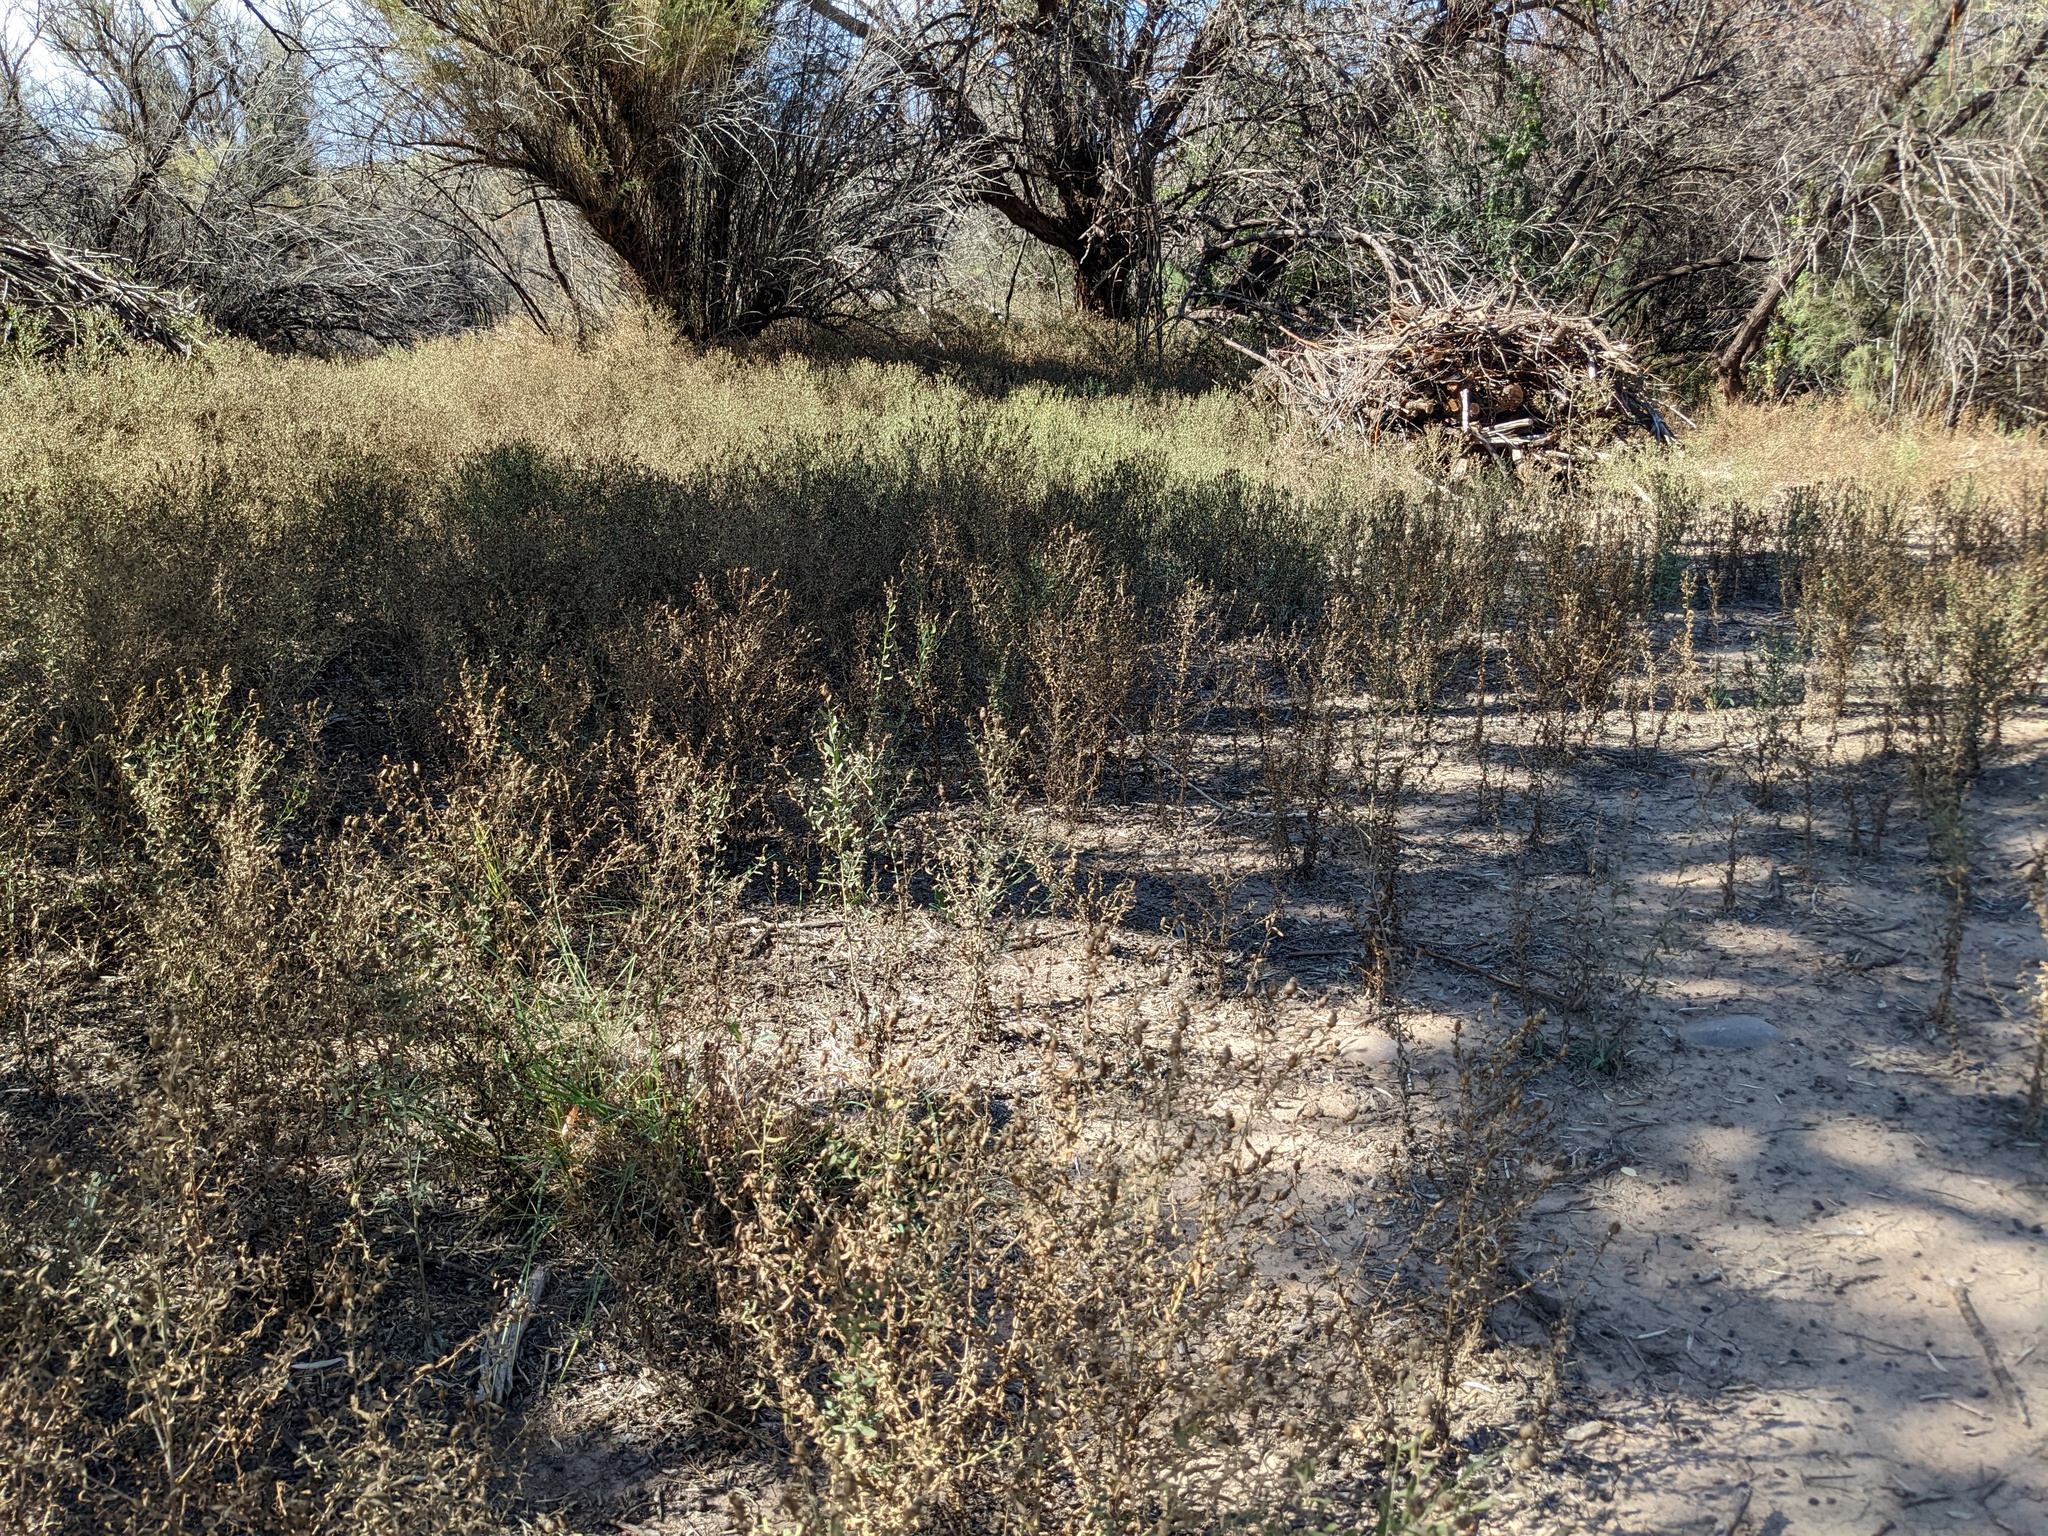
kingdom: Plantae
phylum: Tracheophyta
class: Magnoliopsida
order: Asterales
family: Asteraceae
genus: Leuzea
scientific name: Leuzea repens
